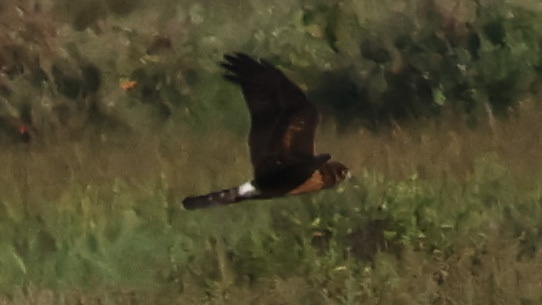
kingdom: Animalia
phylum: Chordata
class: Aves
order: Accipitriformes
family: Accipitridae
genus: Circus
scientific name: Circus cyaneus
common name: Hen harrier
